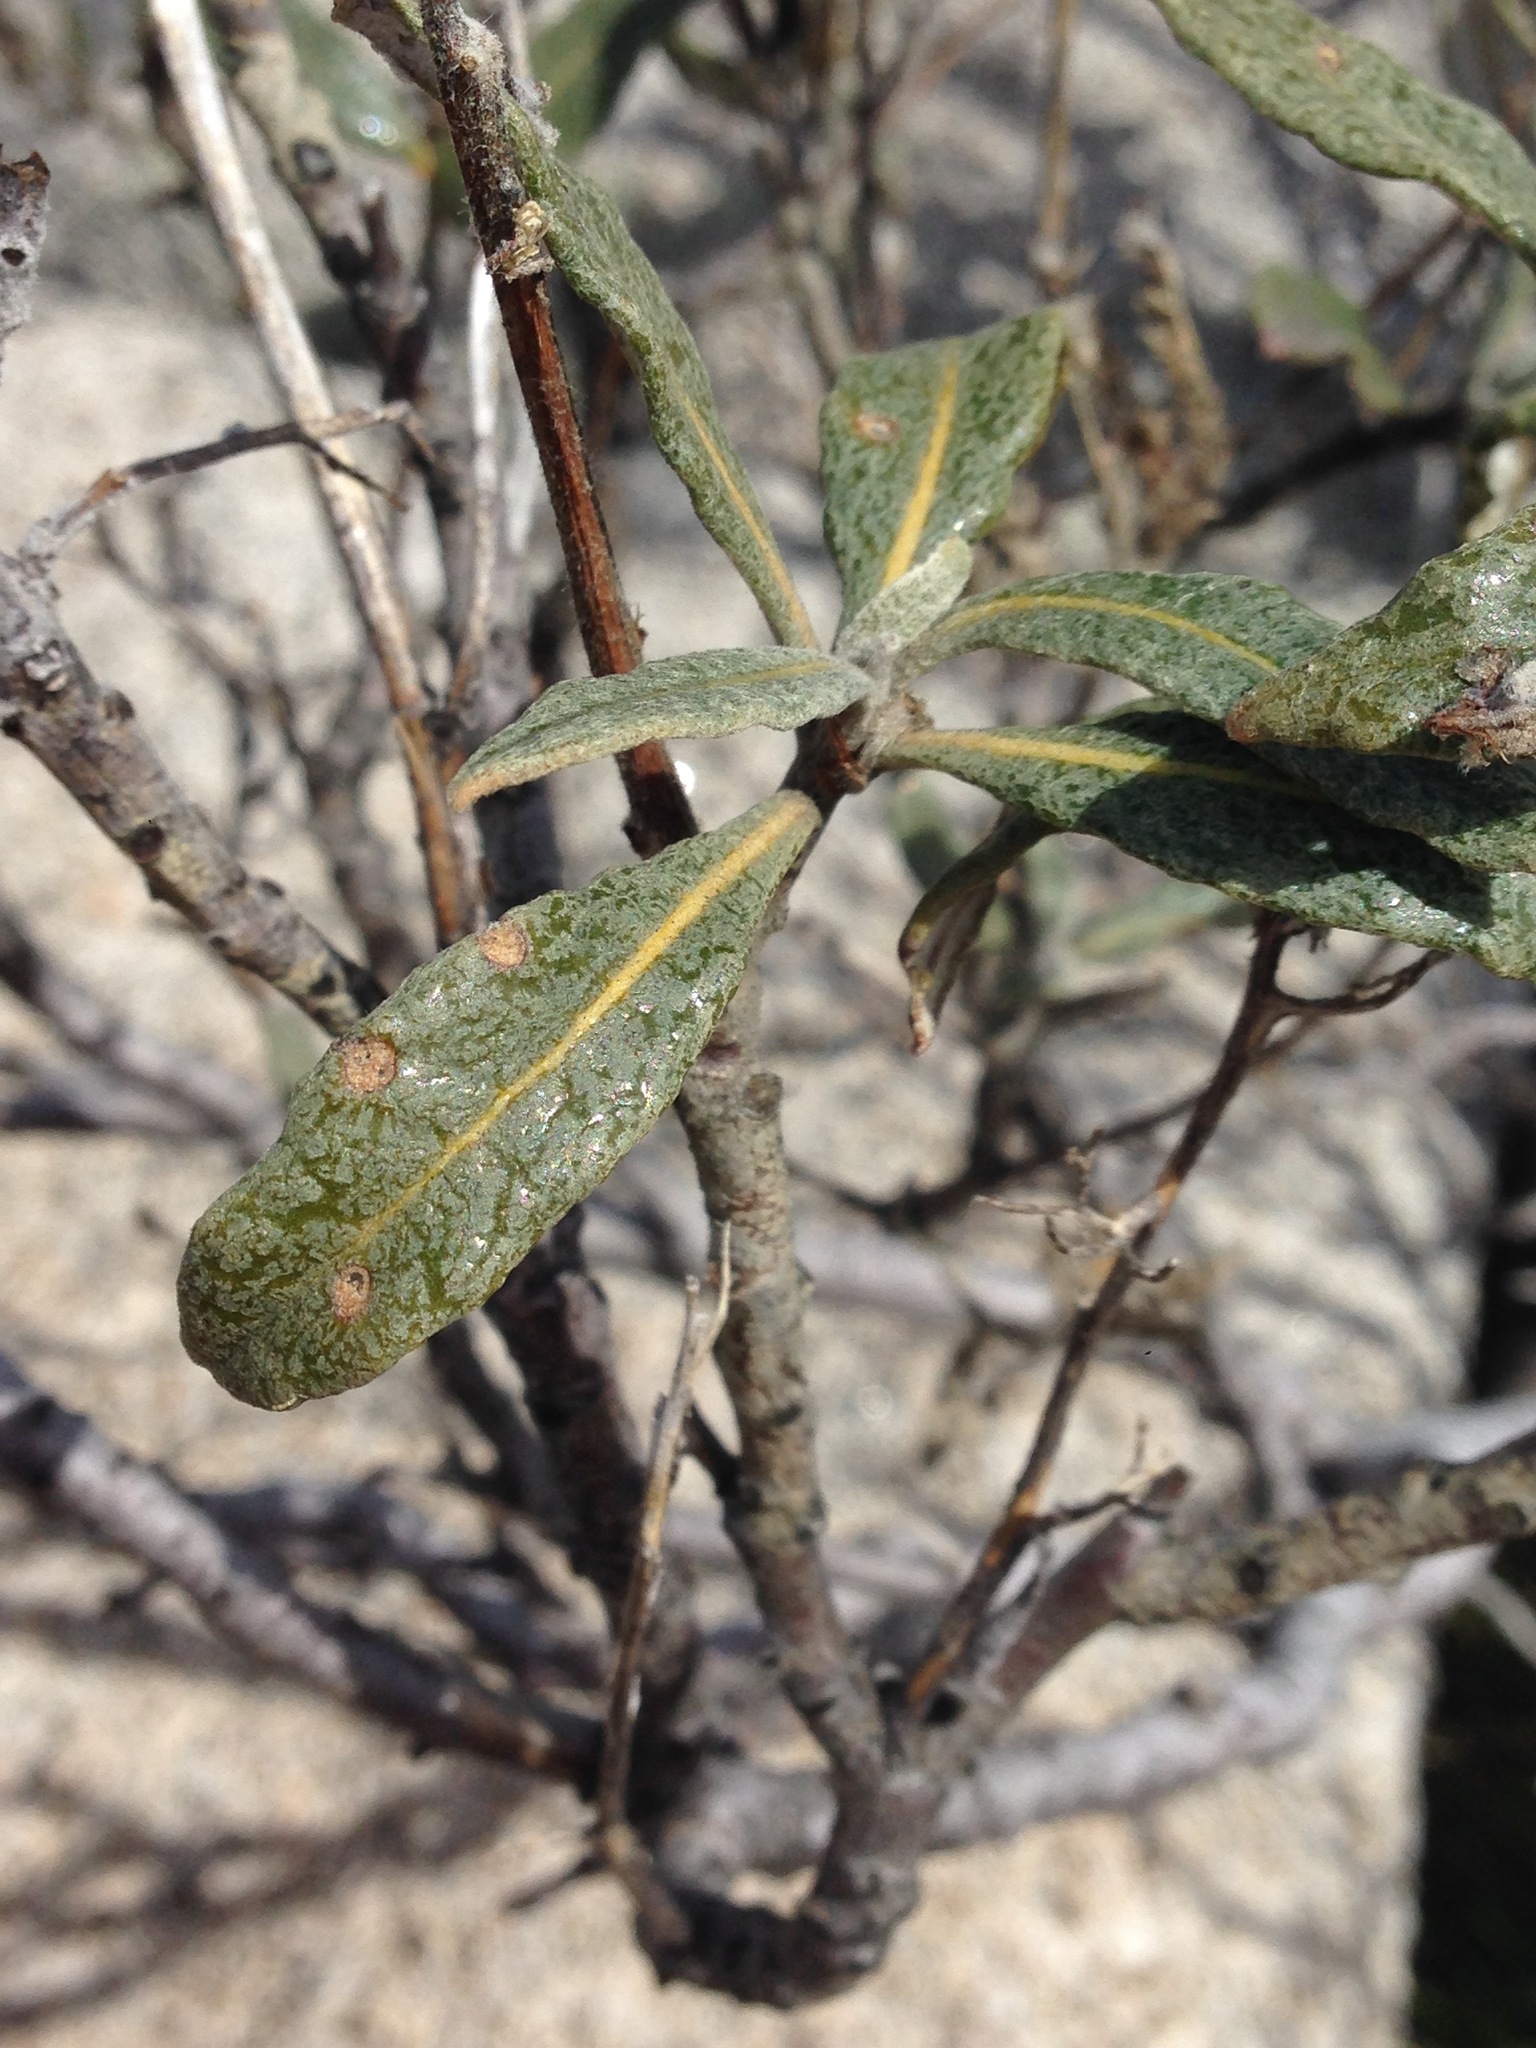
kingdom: Plantae
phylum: Tracheophyta
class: Magnoliopsida
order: Boraginales
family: Namaceae
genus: Eriodictyon
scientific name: Eriodictyon trichocalyx
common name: Hairy yerba-santa
